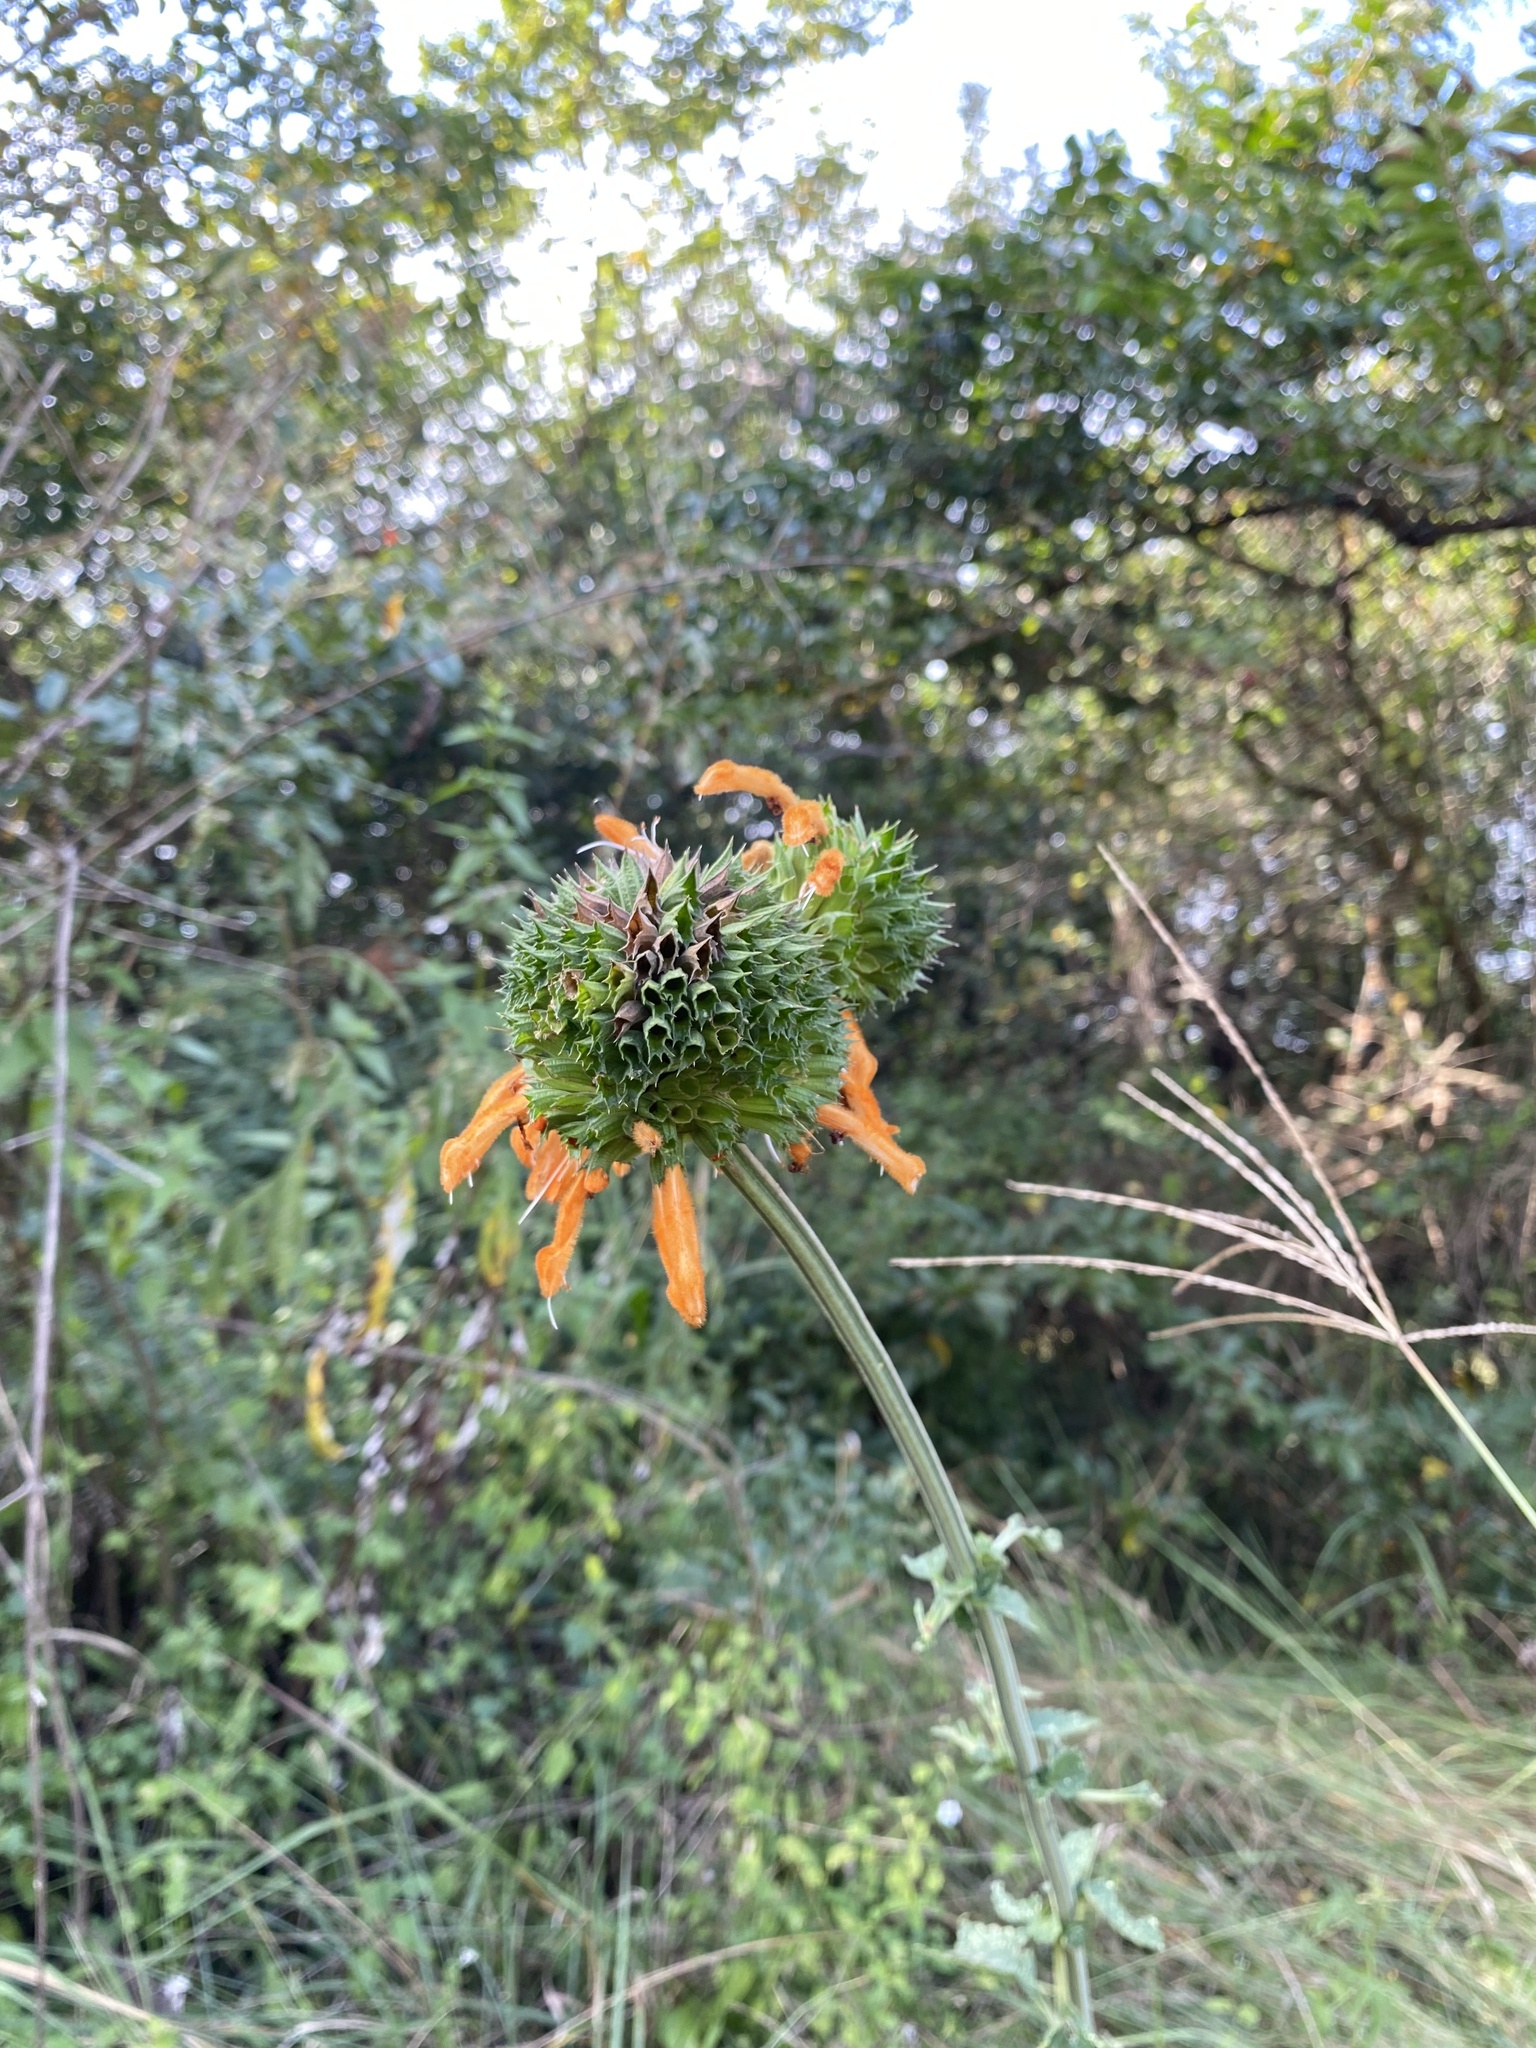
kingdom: Plantae
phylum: Tracheophyta
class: Magnoliopsida
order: Lamiales
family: Lamiaceae
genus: Leonotis
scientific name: Leonotis ocymifolia
